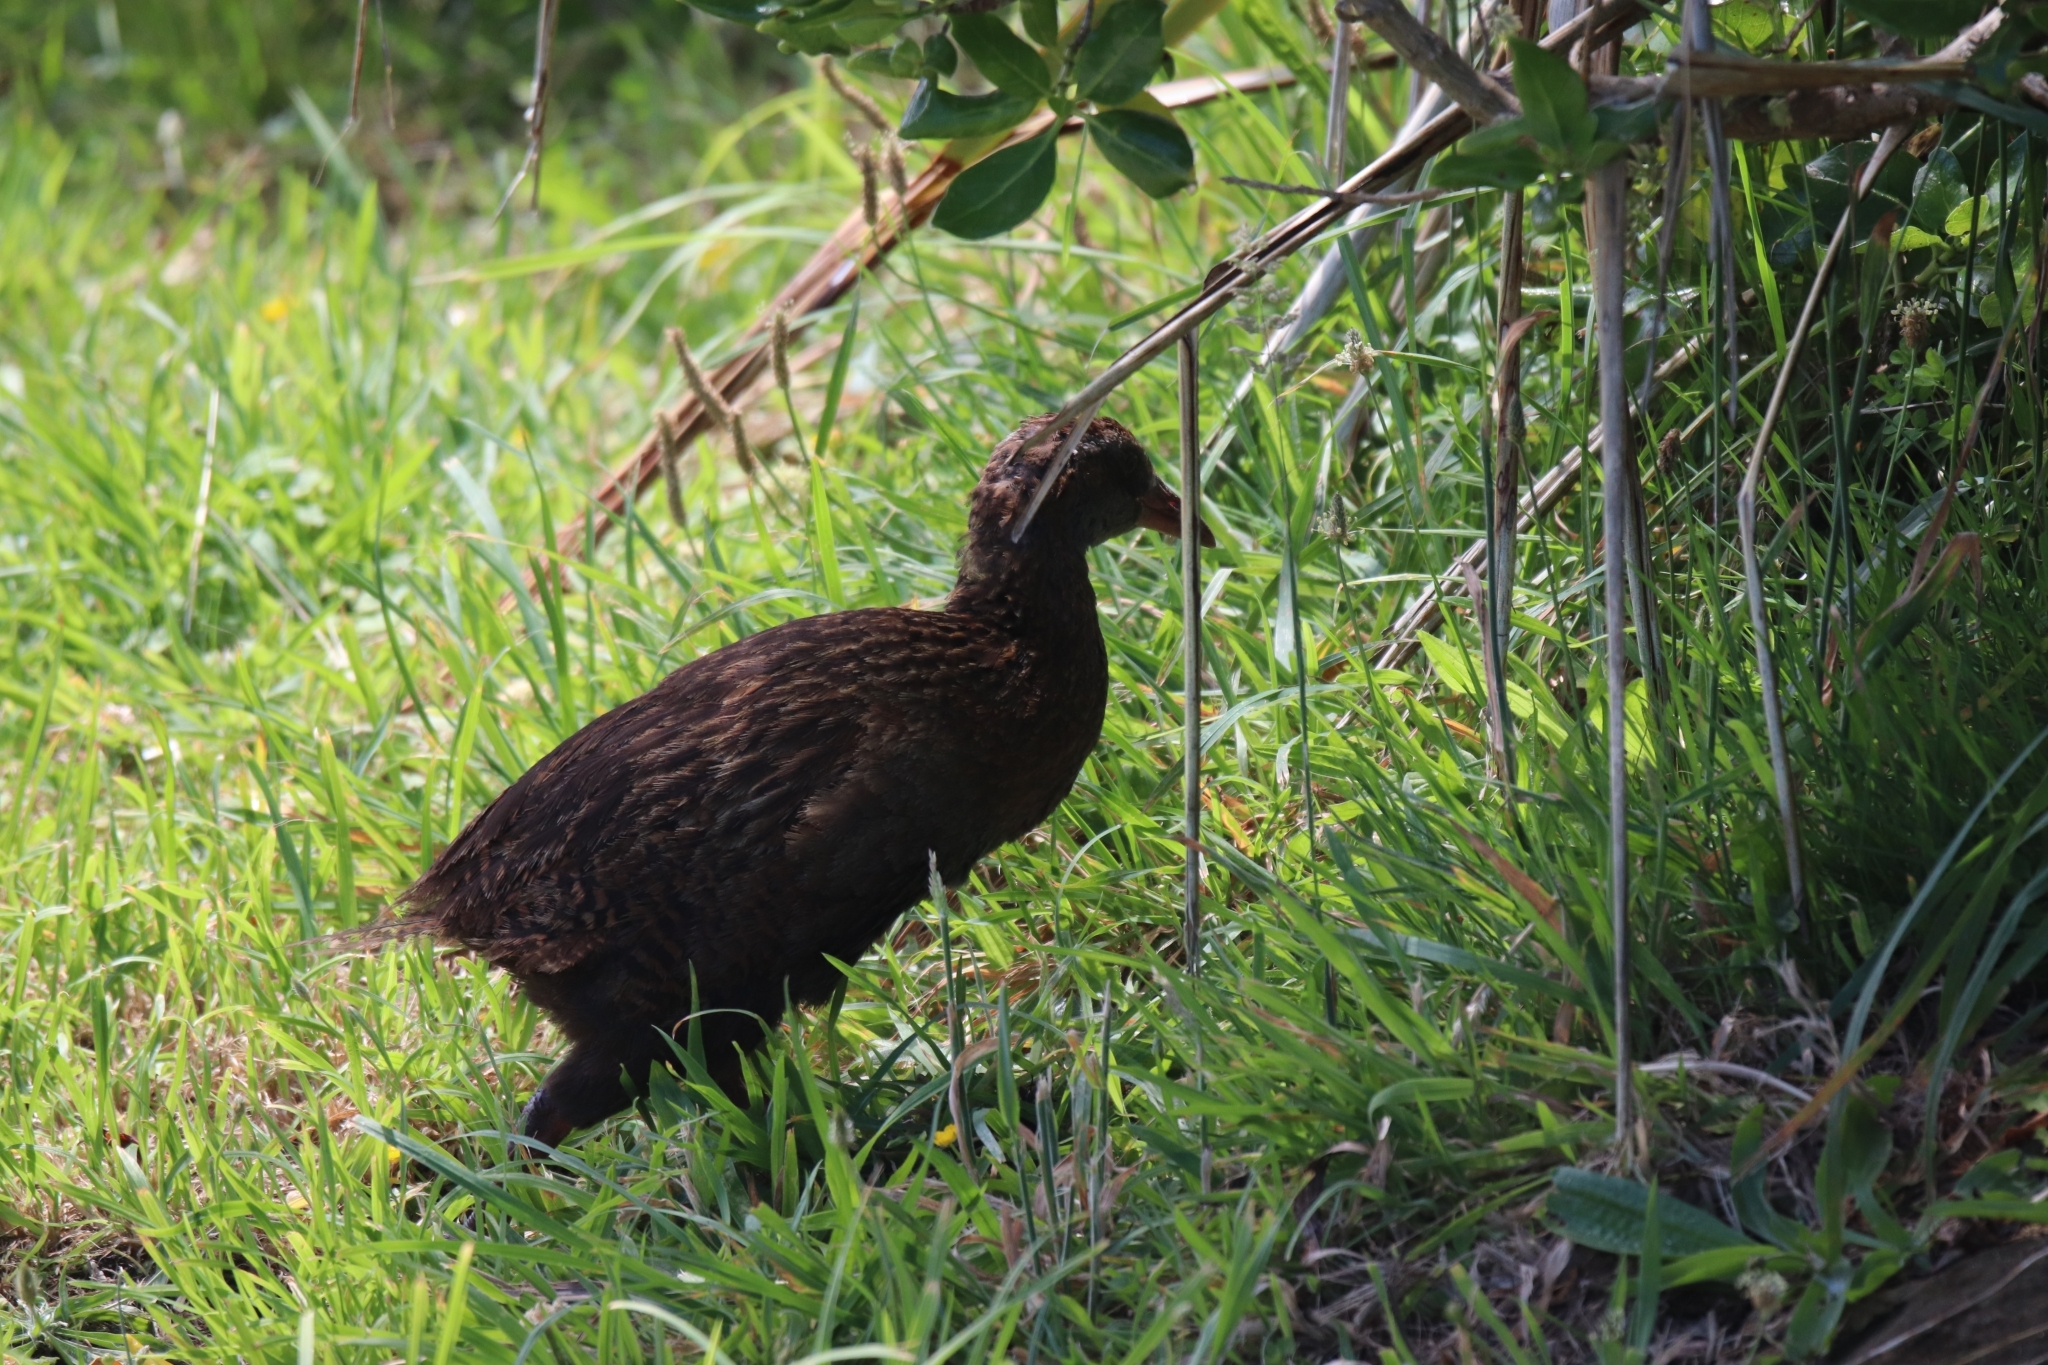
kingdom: Animalia
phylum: Chordata
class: Aves
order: Gruiformes
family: Rallidae
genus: Gallirallus
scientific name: Gallirallus australis
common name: Weka
